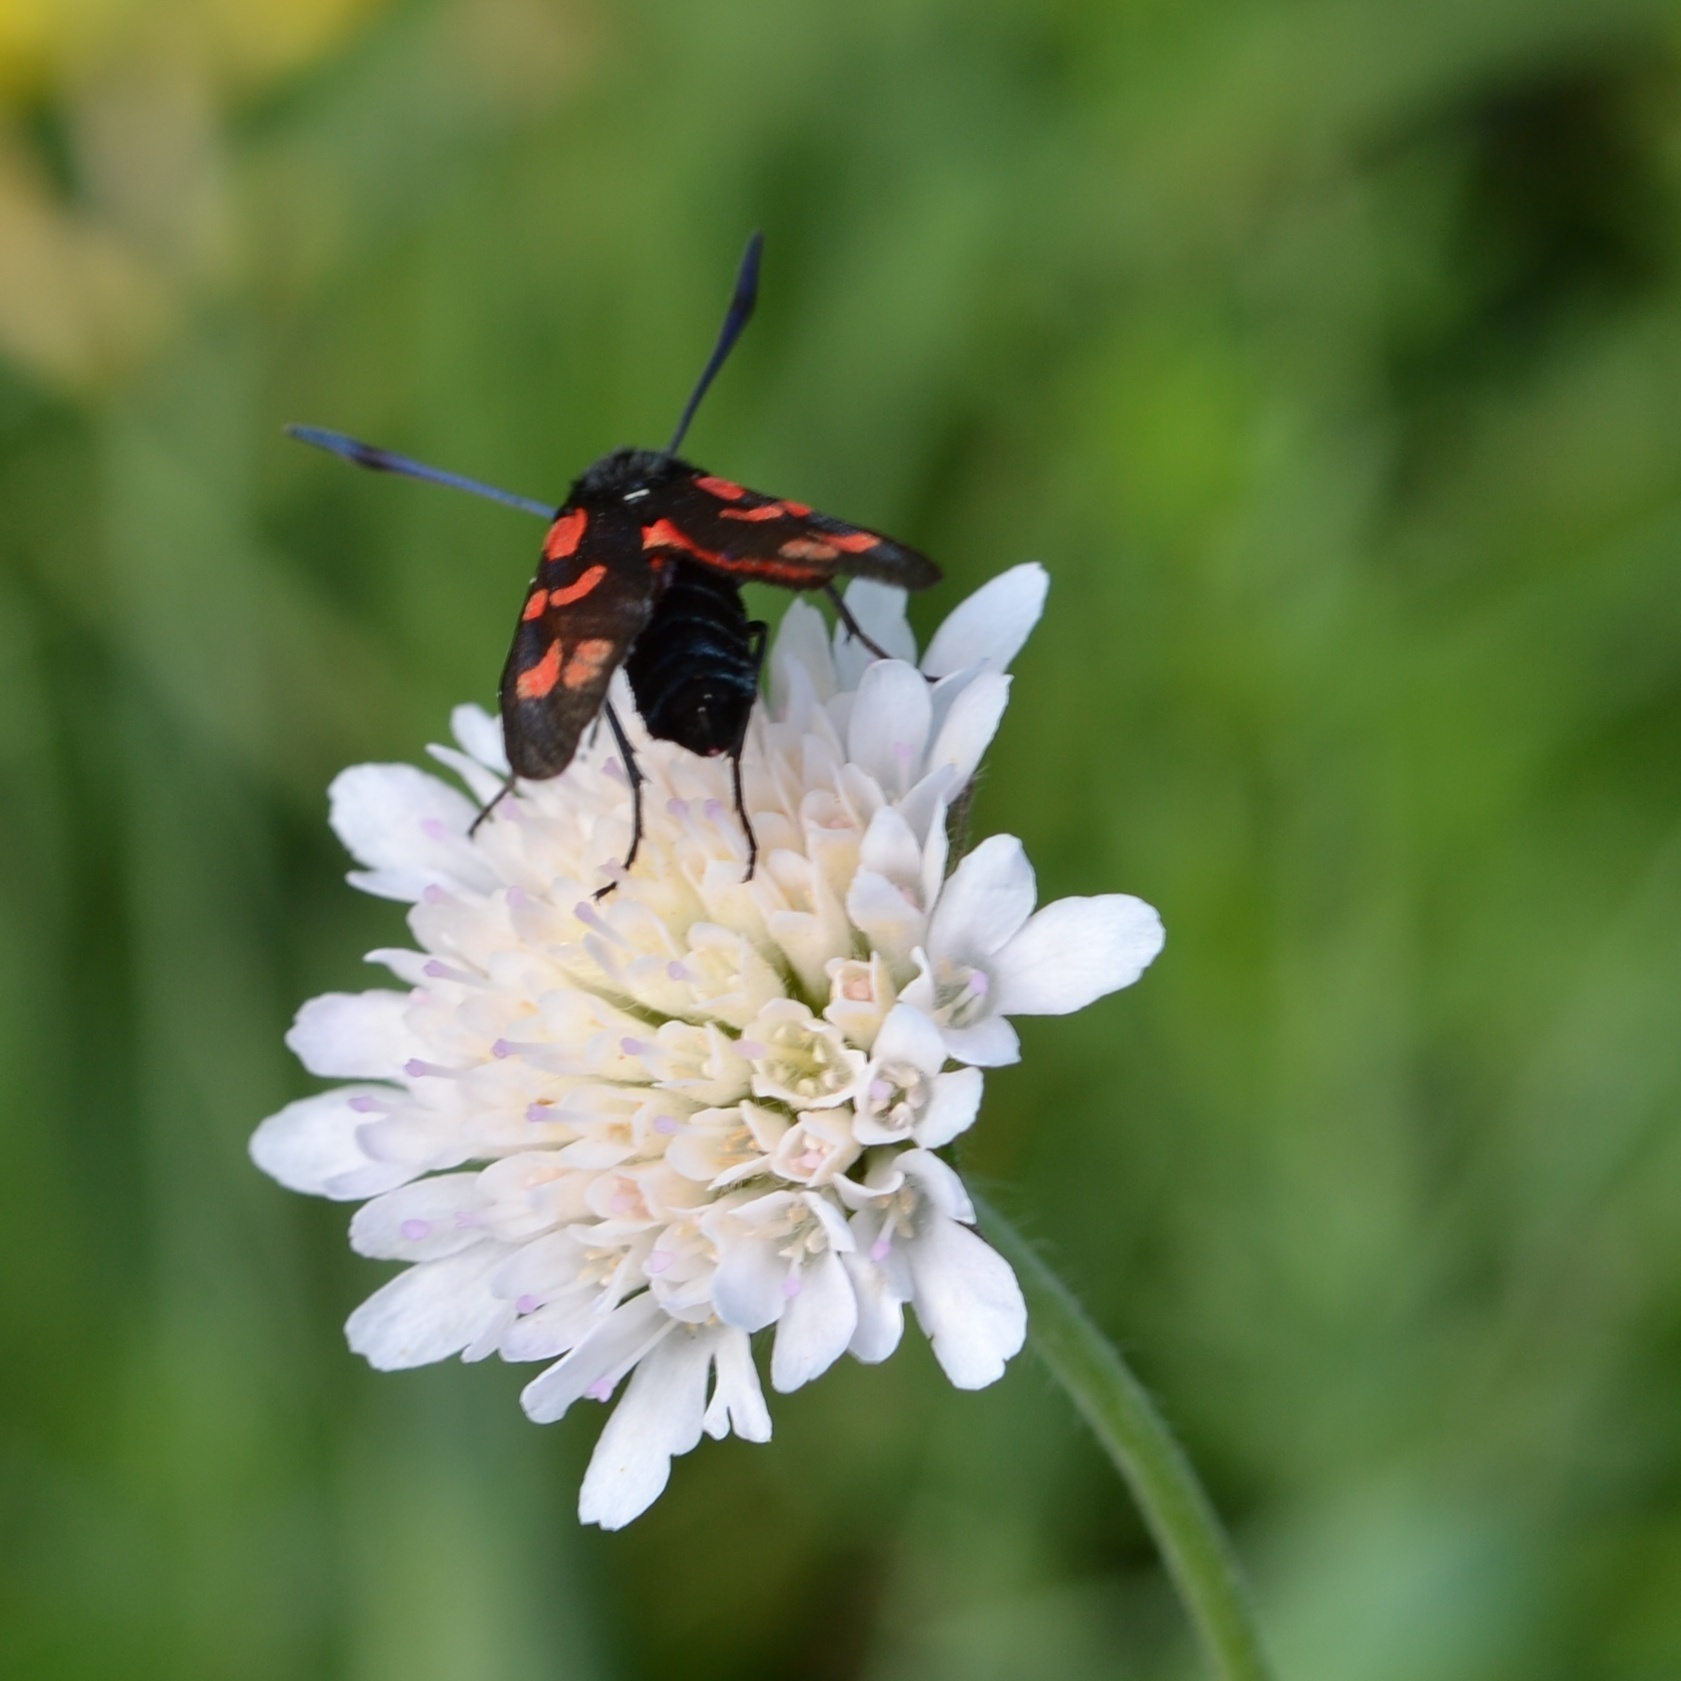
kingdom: Animalia
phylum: Arthropoda
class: Insecta
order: Lepidoptera
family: Zygaenidae
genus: Zygaena
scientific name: Zygaena filipendulae
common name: Six-spot burnet
